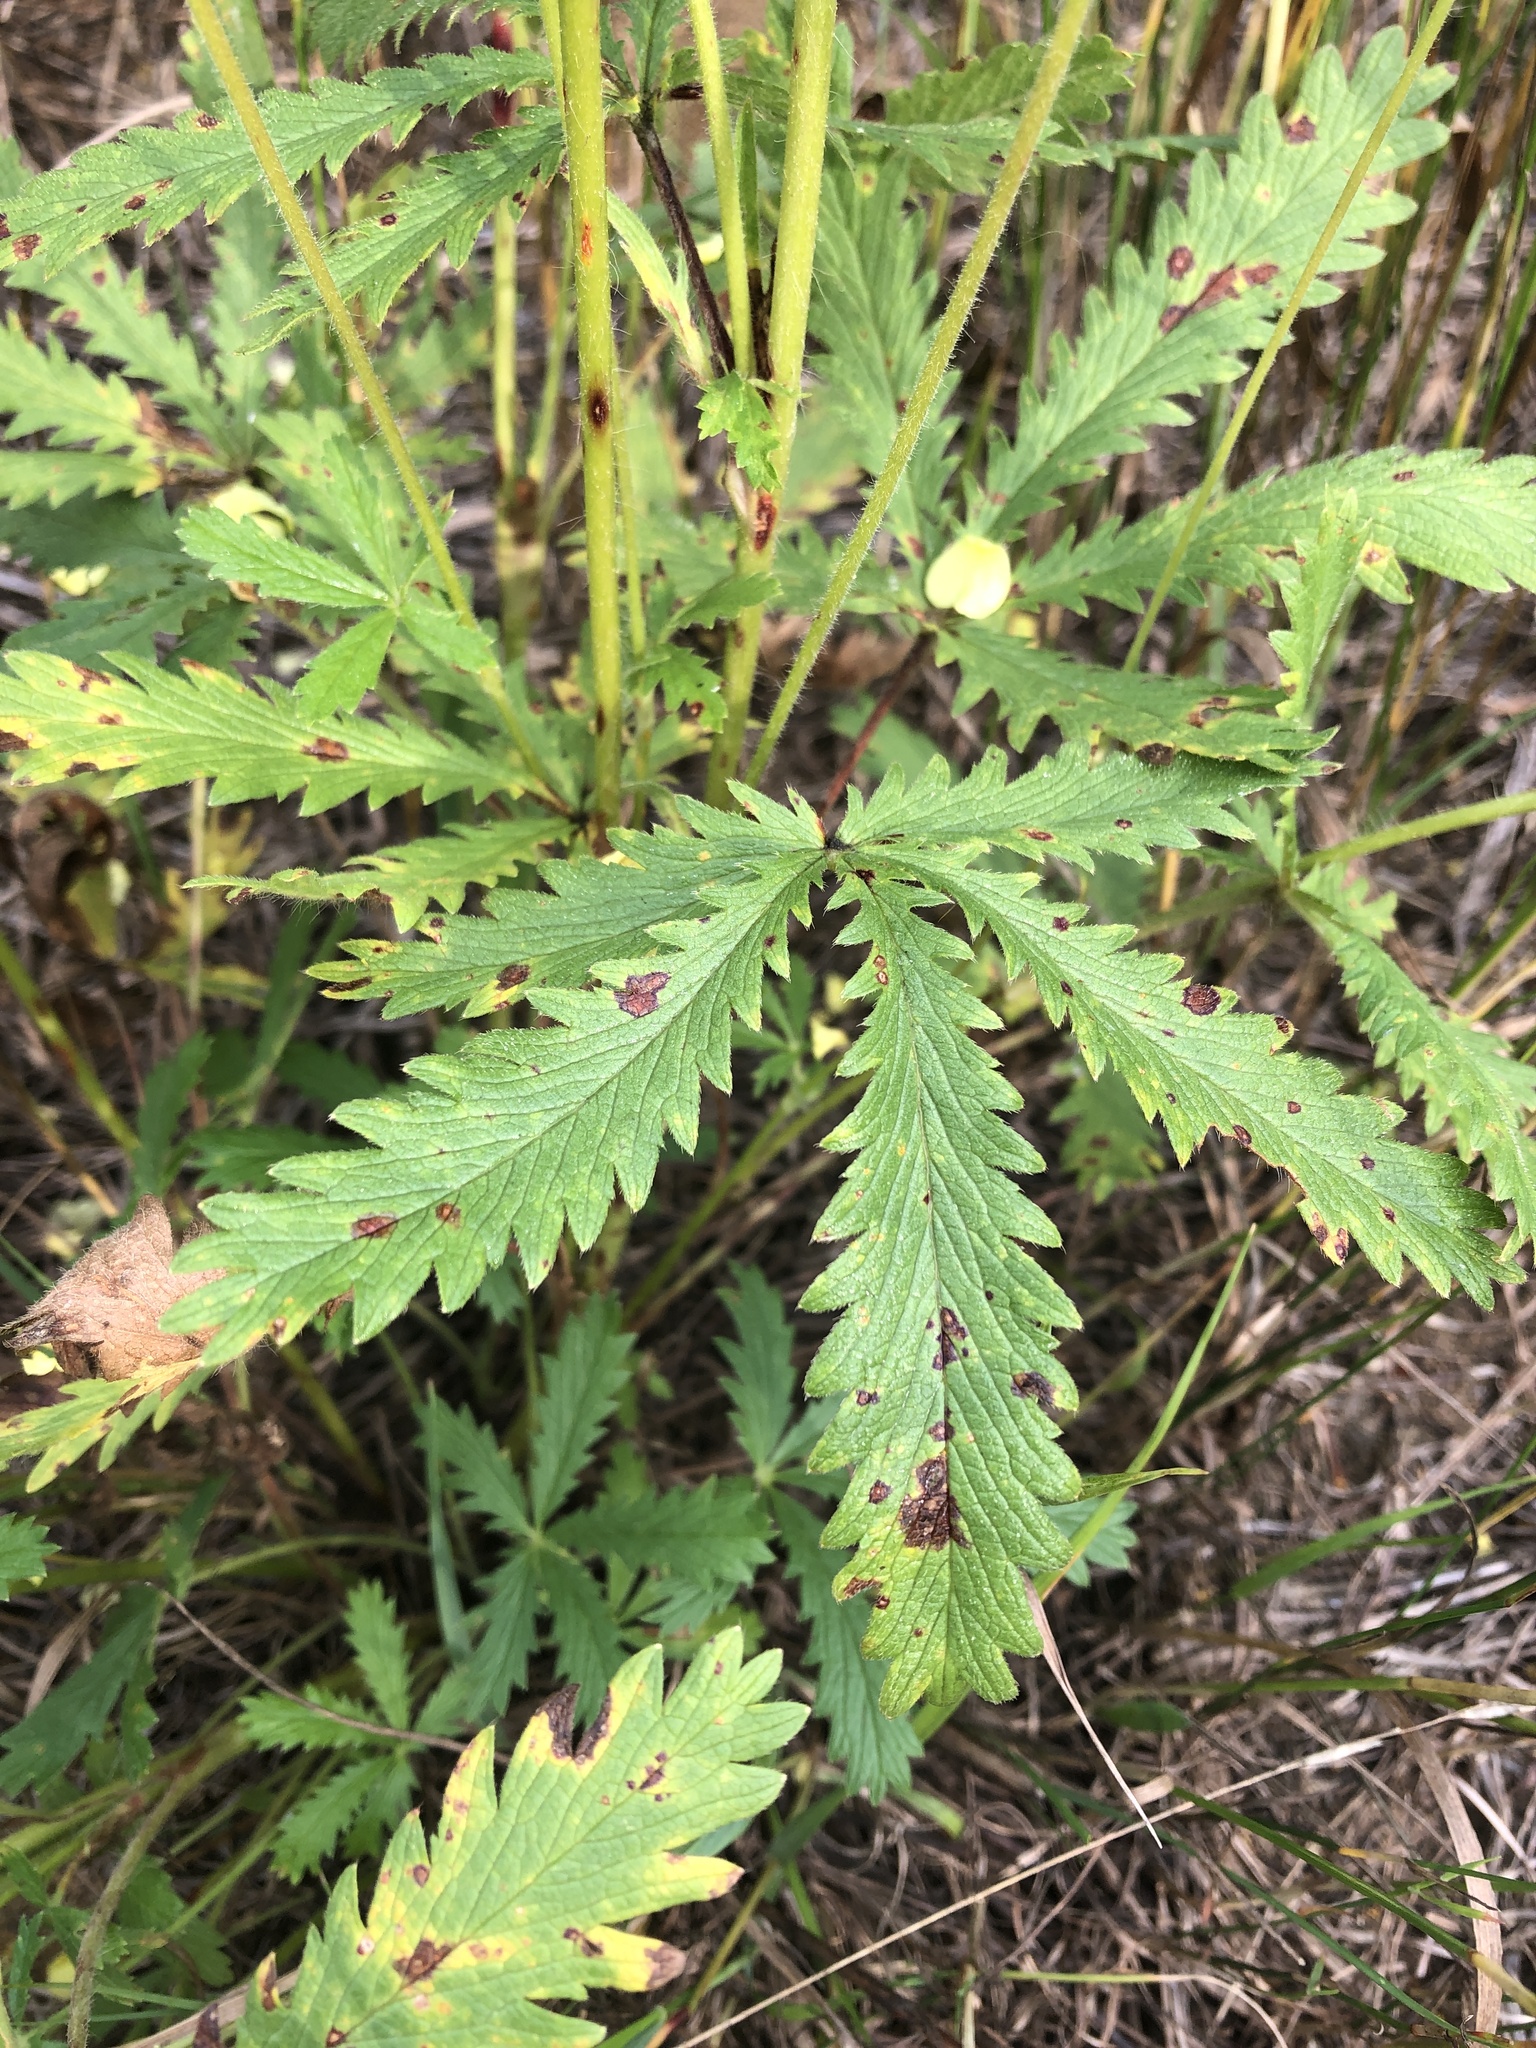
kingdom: Plantae
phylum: Tracheophyta
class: Magnoliopsida
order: Rosales
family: Rosaceae
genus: Potentilla
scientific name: Potentilla recta
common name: Sulphur cinquefoil
